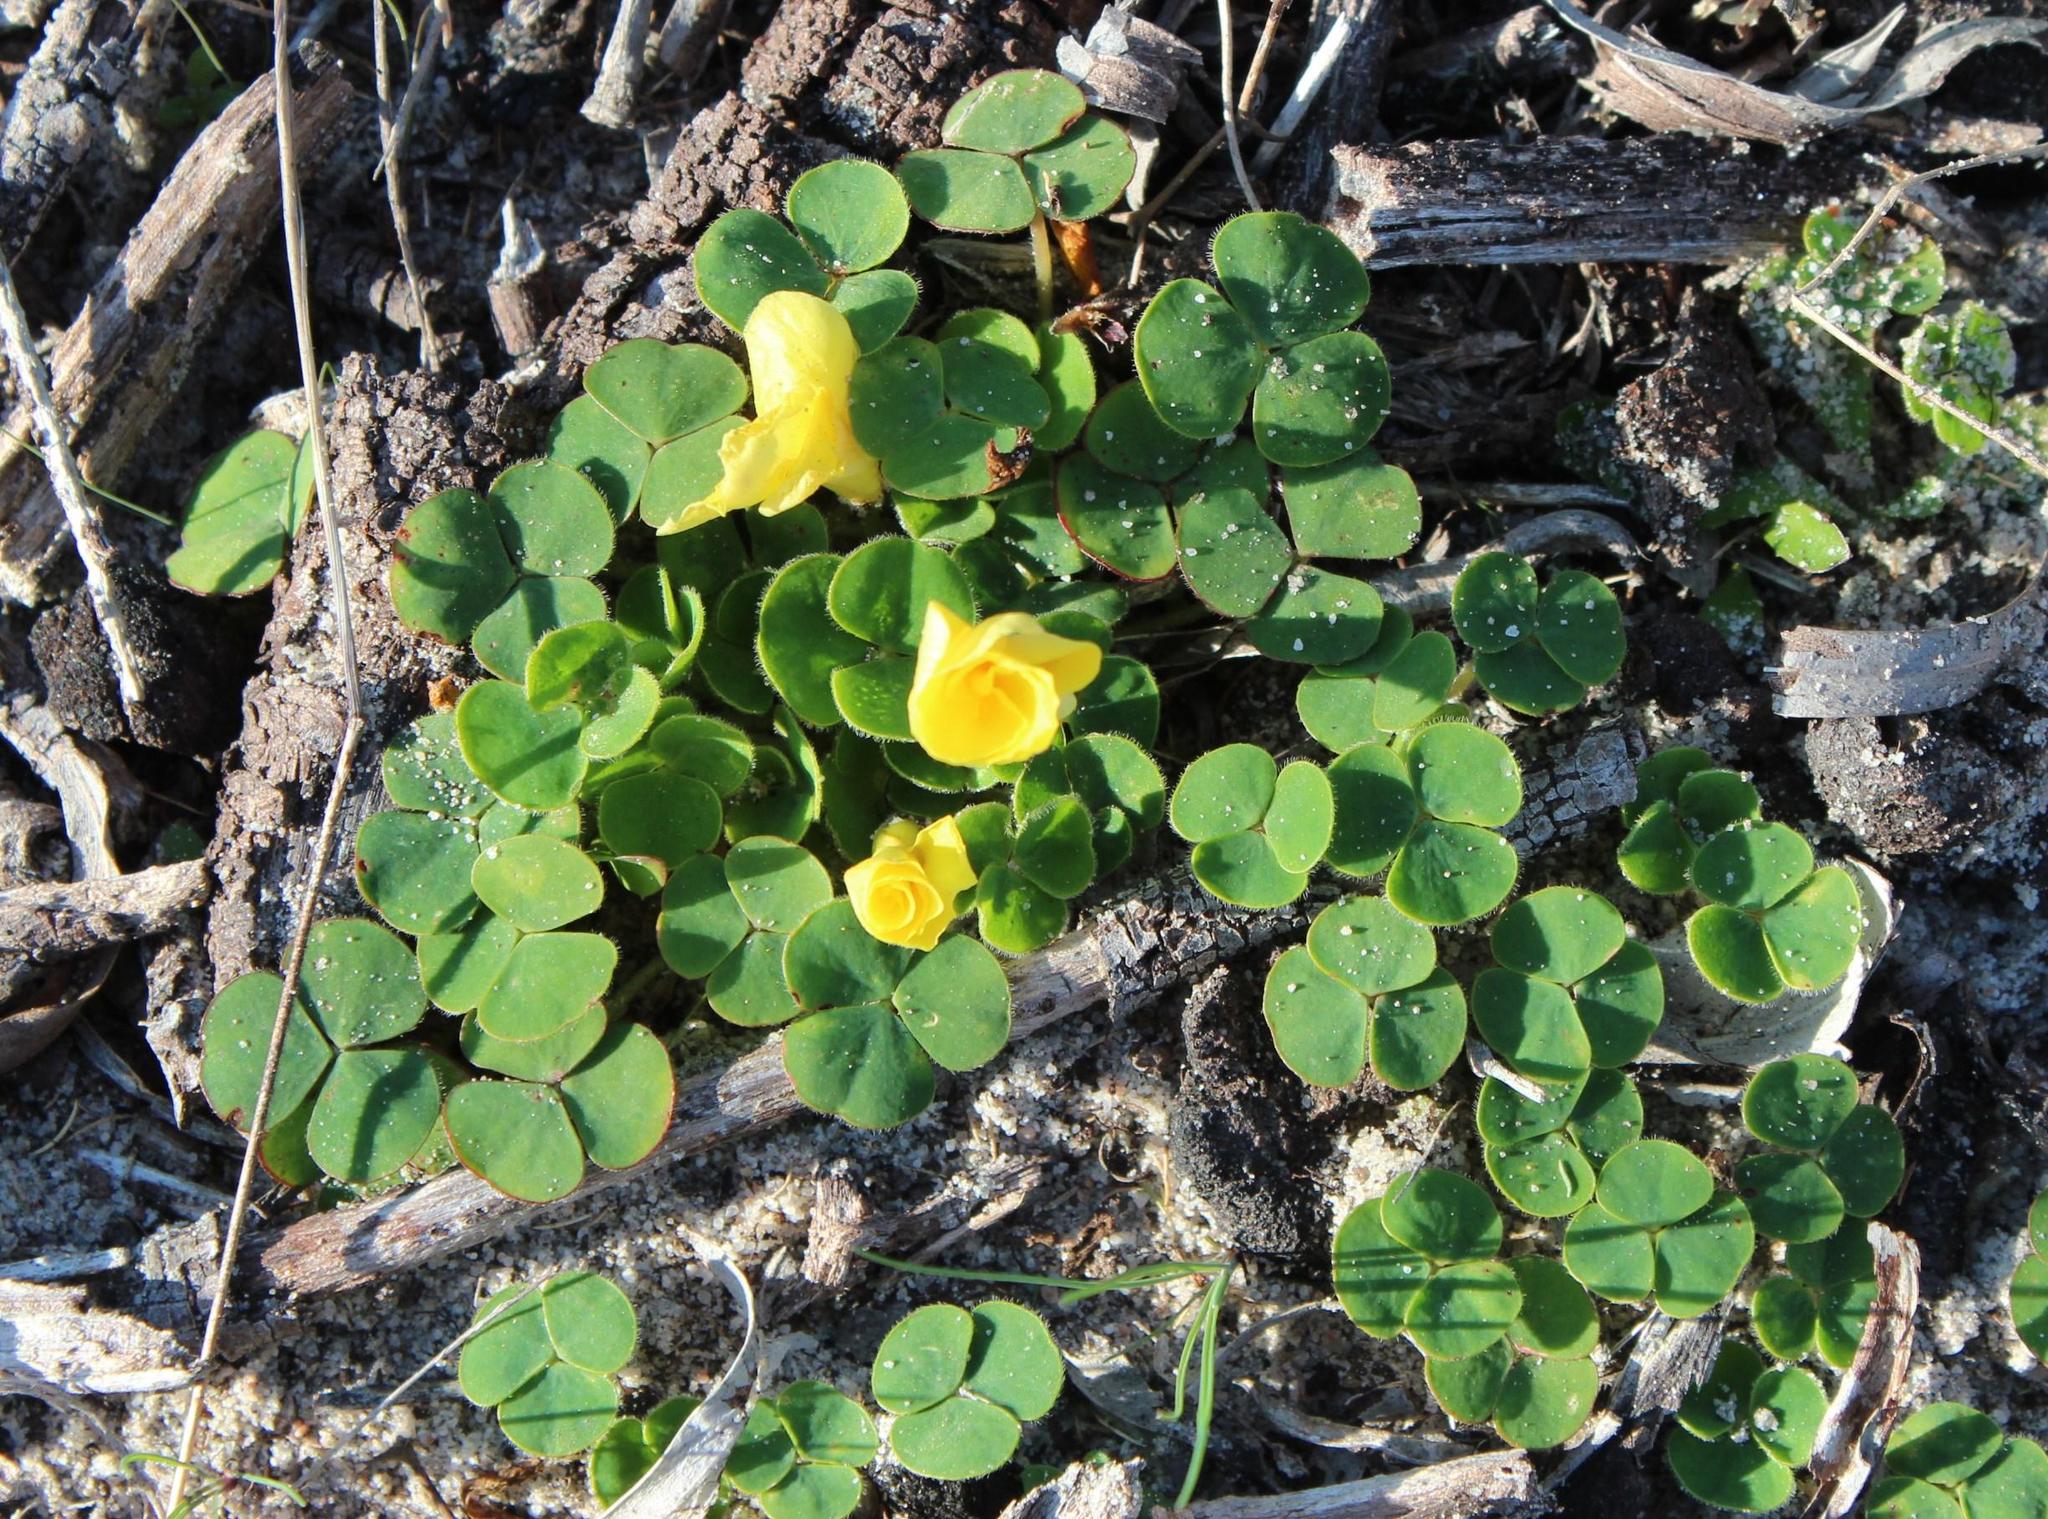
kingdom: Plantae
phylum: Tracheophyta
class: Magnoliopsida
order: Oxalidales
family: Oxalidaceae
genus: Oxalis
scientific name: Oxalis luteola
